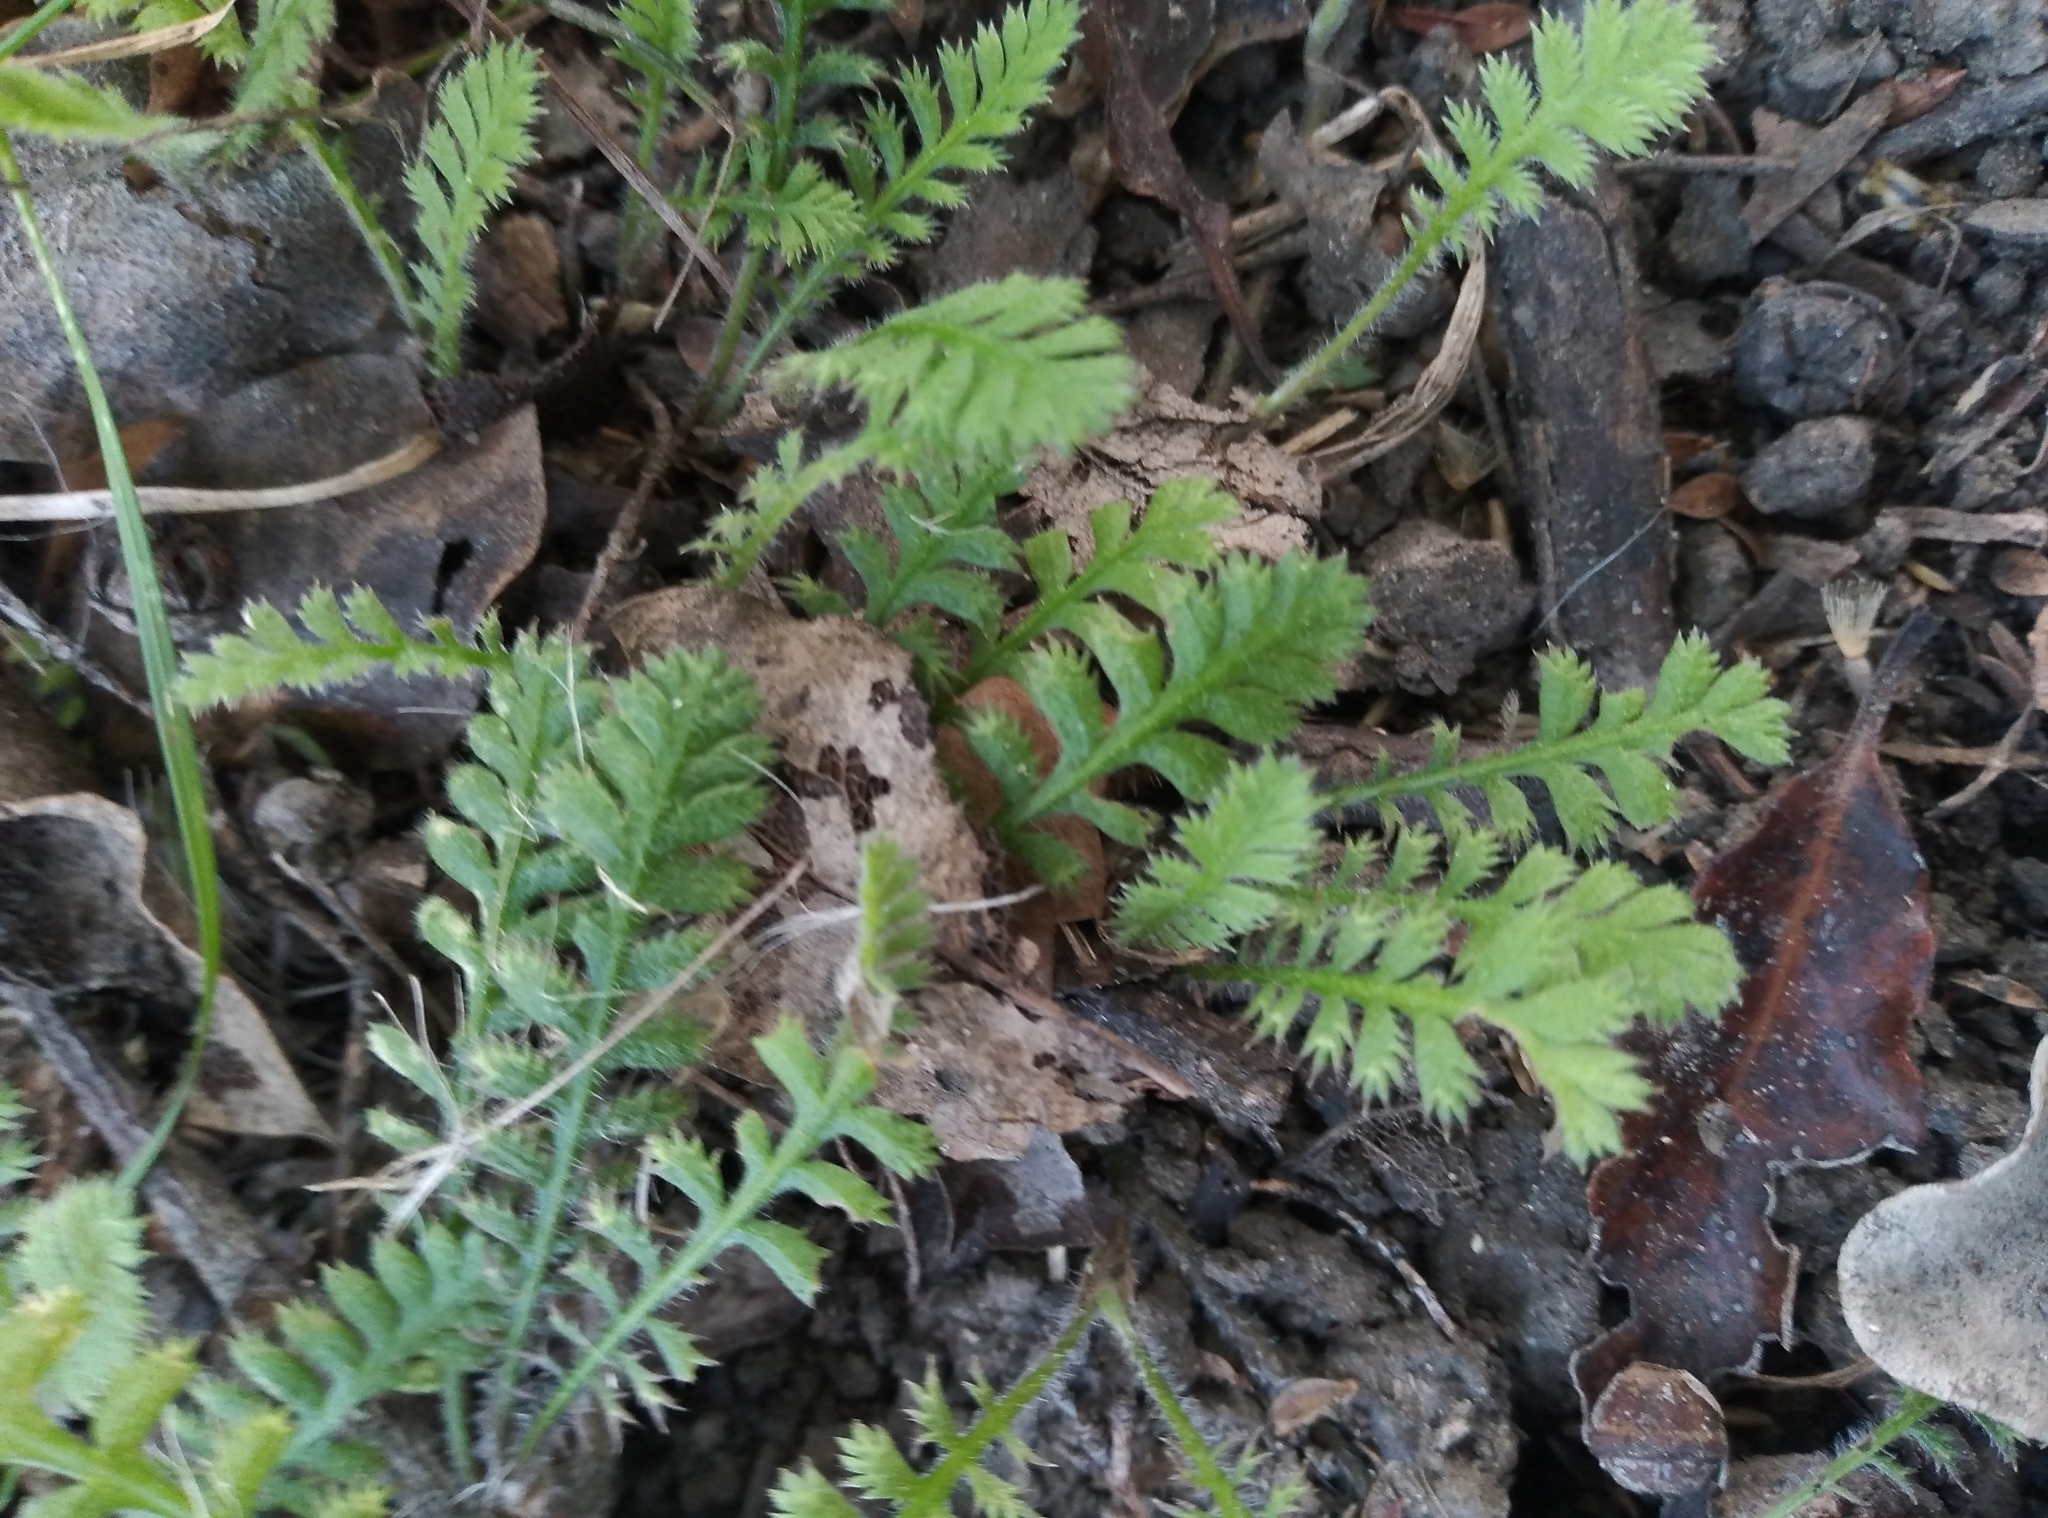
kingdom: Plantae
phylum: Tracheophyta
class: Magnoliopsida
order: Asterales
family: Asteraceae
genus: Leptinella
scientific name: Leptinella squalida
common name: New zealand brass-buttons
